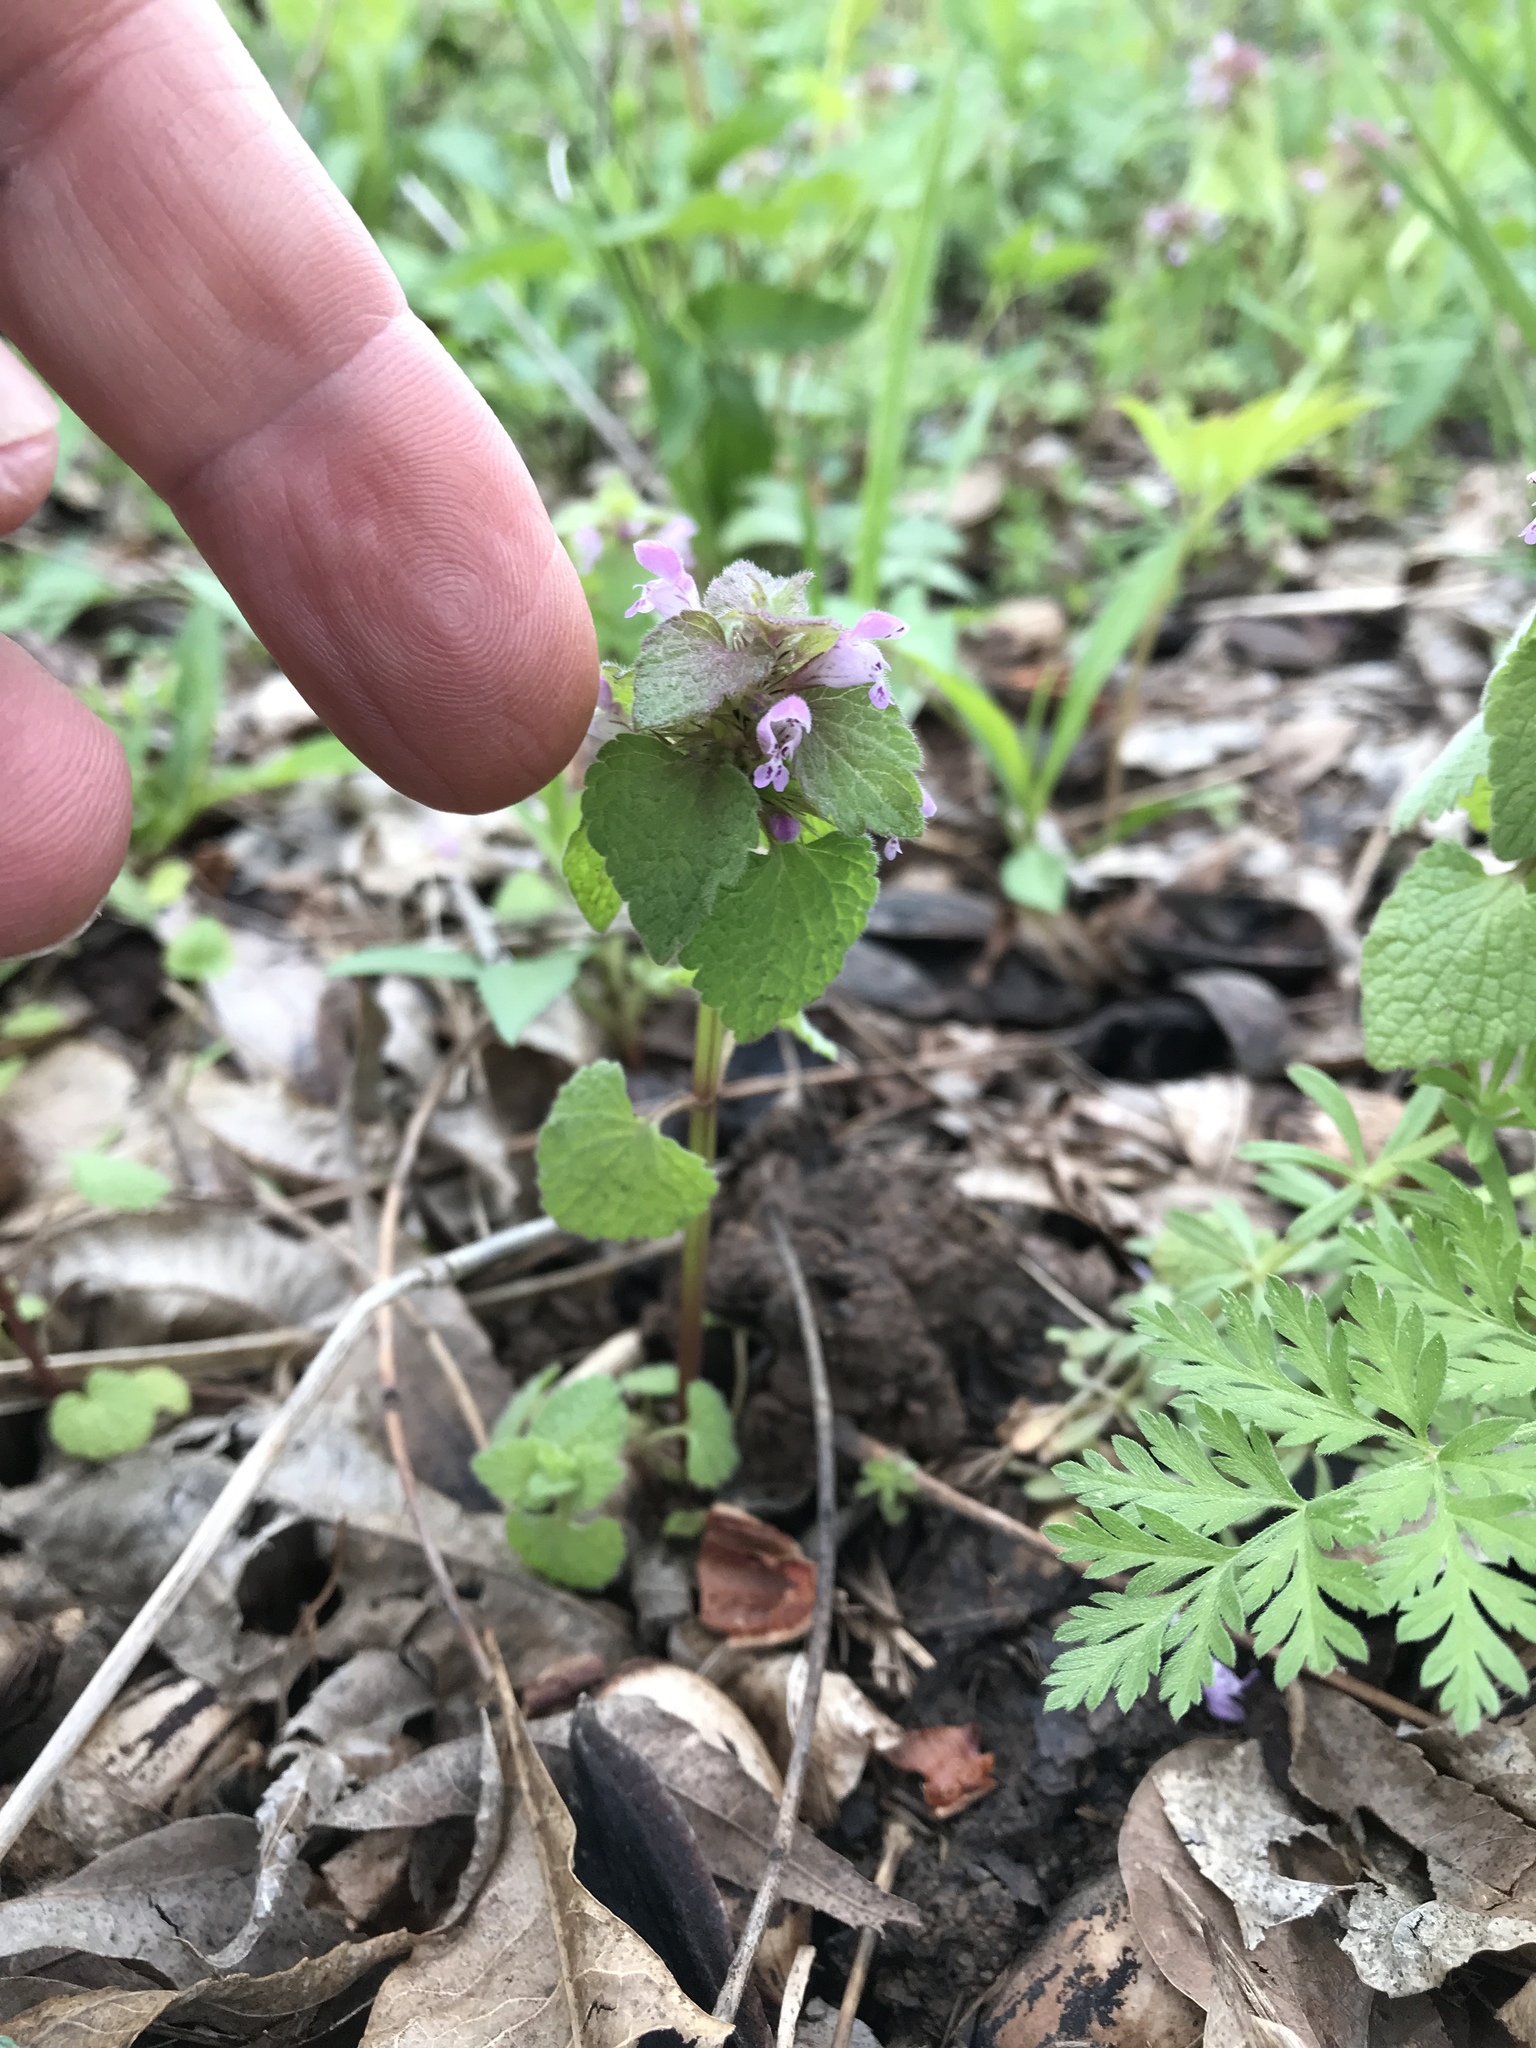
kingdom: Plantae
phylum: Tracheophyta
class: Magnoliopsida
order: Lamiales
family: Lamiaceae
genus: Lamium
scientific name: Lamium purpureum
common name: Red dead-nettle
